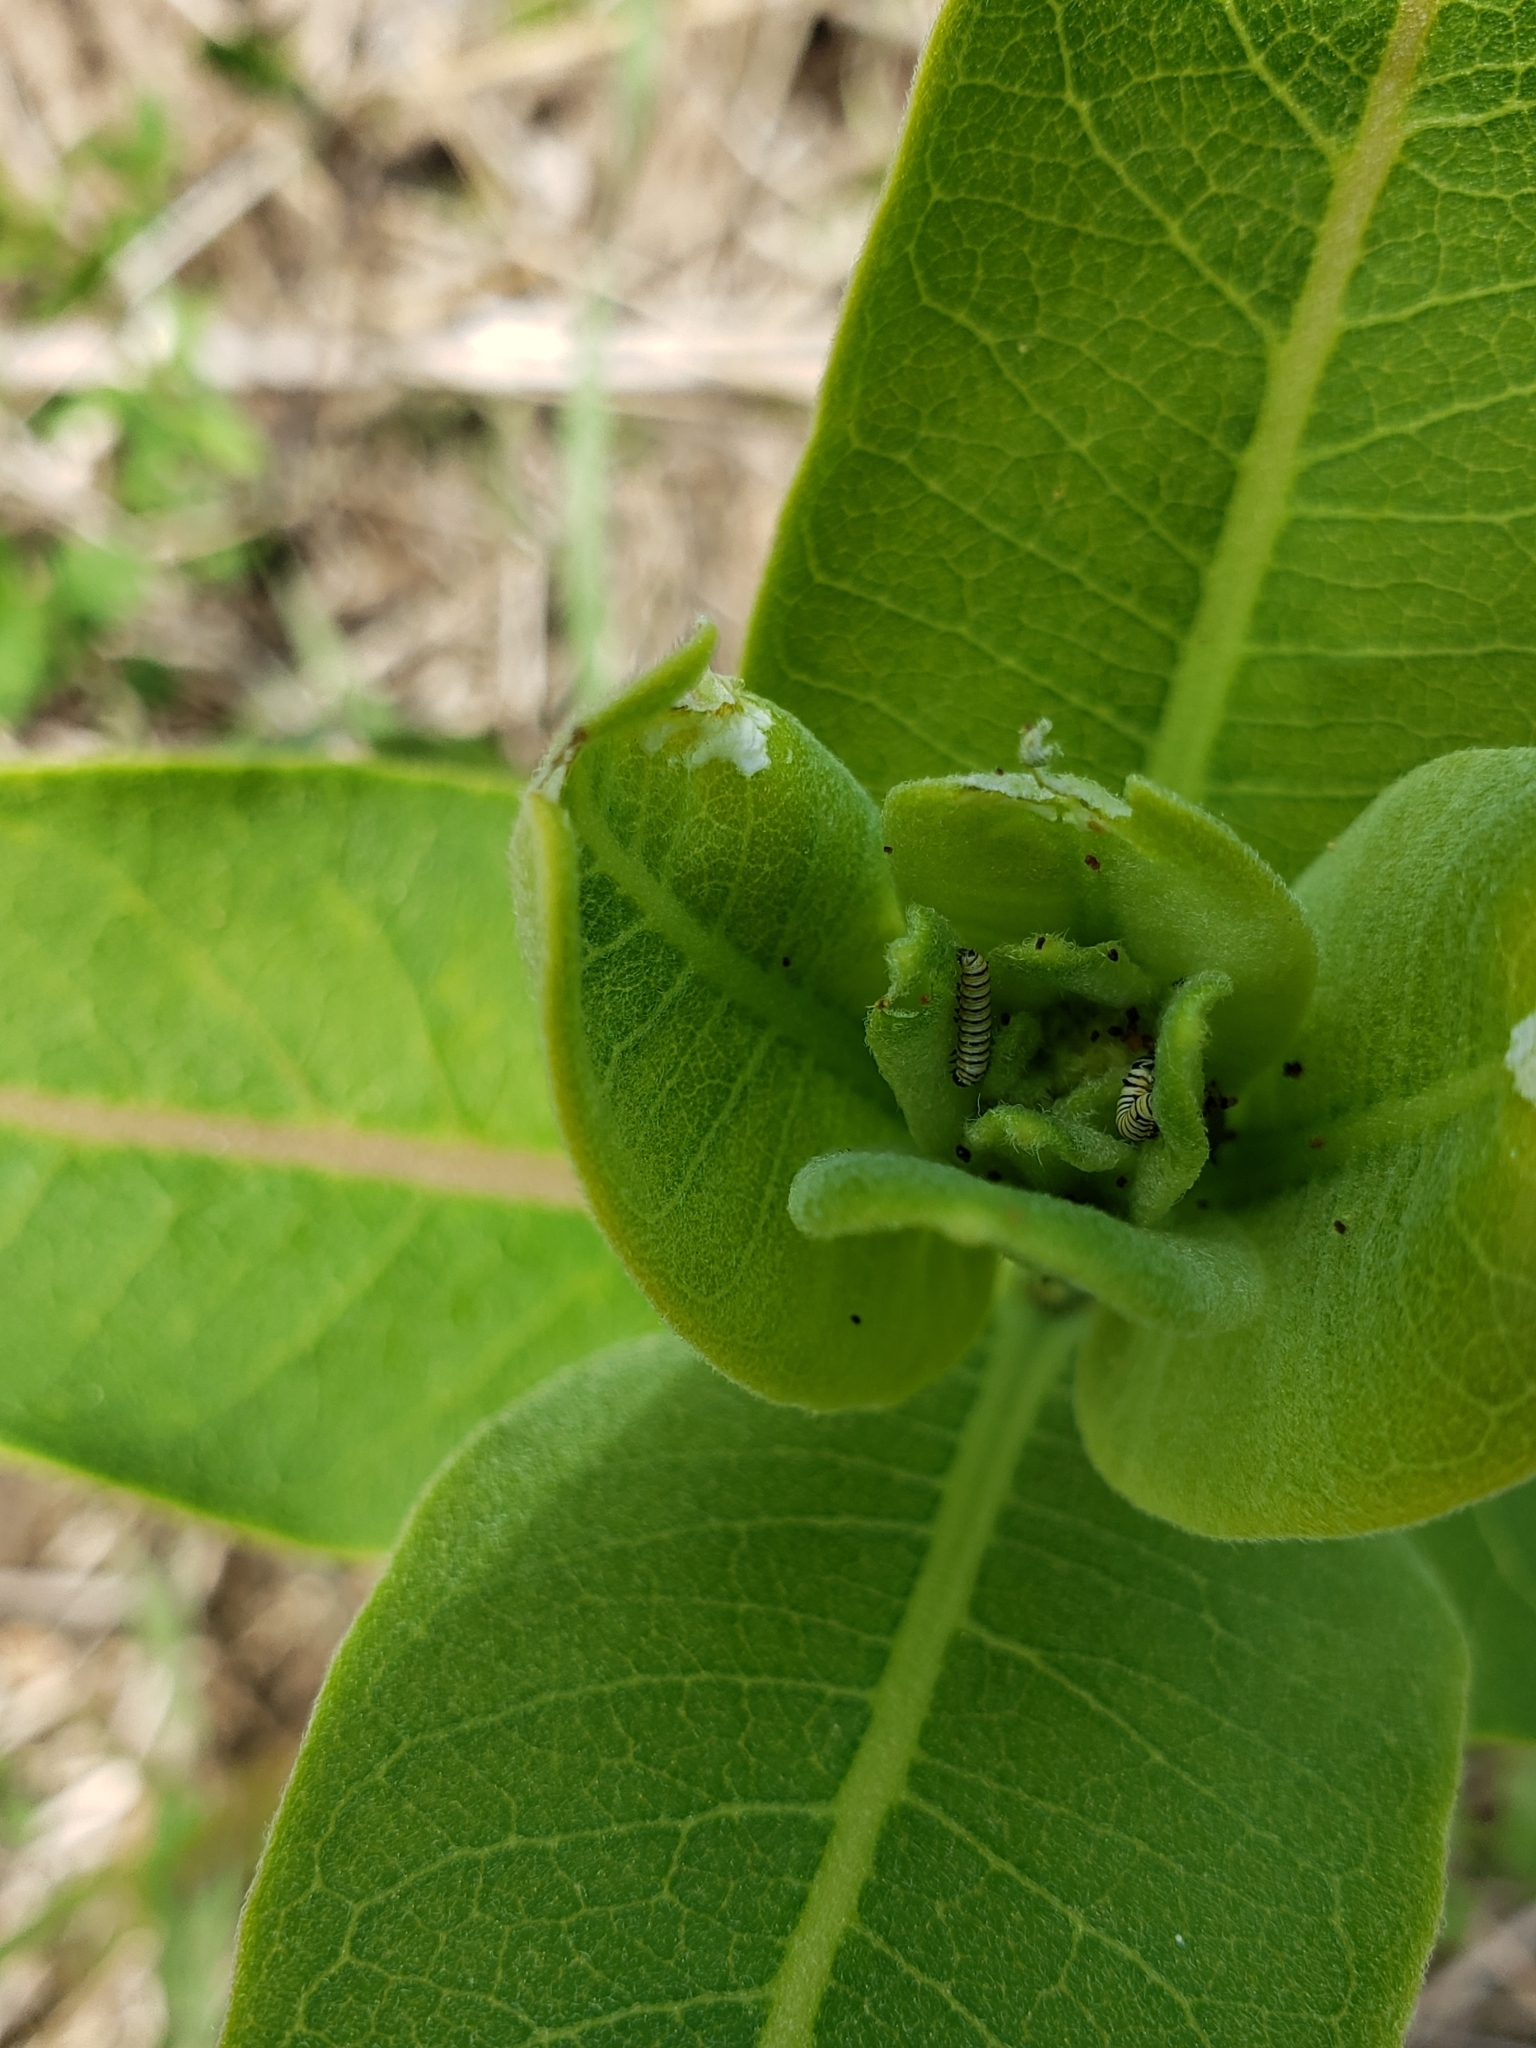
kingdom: Animalia
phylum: Arthropoda
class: Insecta
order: Lepidoptera
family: Nymphalidae
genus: Danaus
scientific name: Danaus plexippus
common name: Monarch
